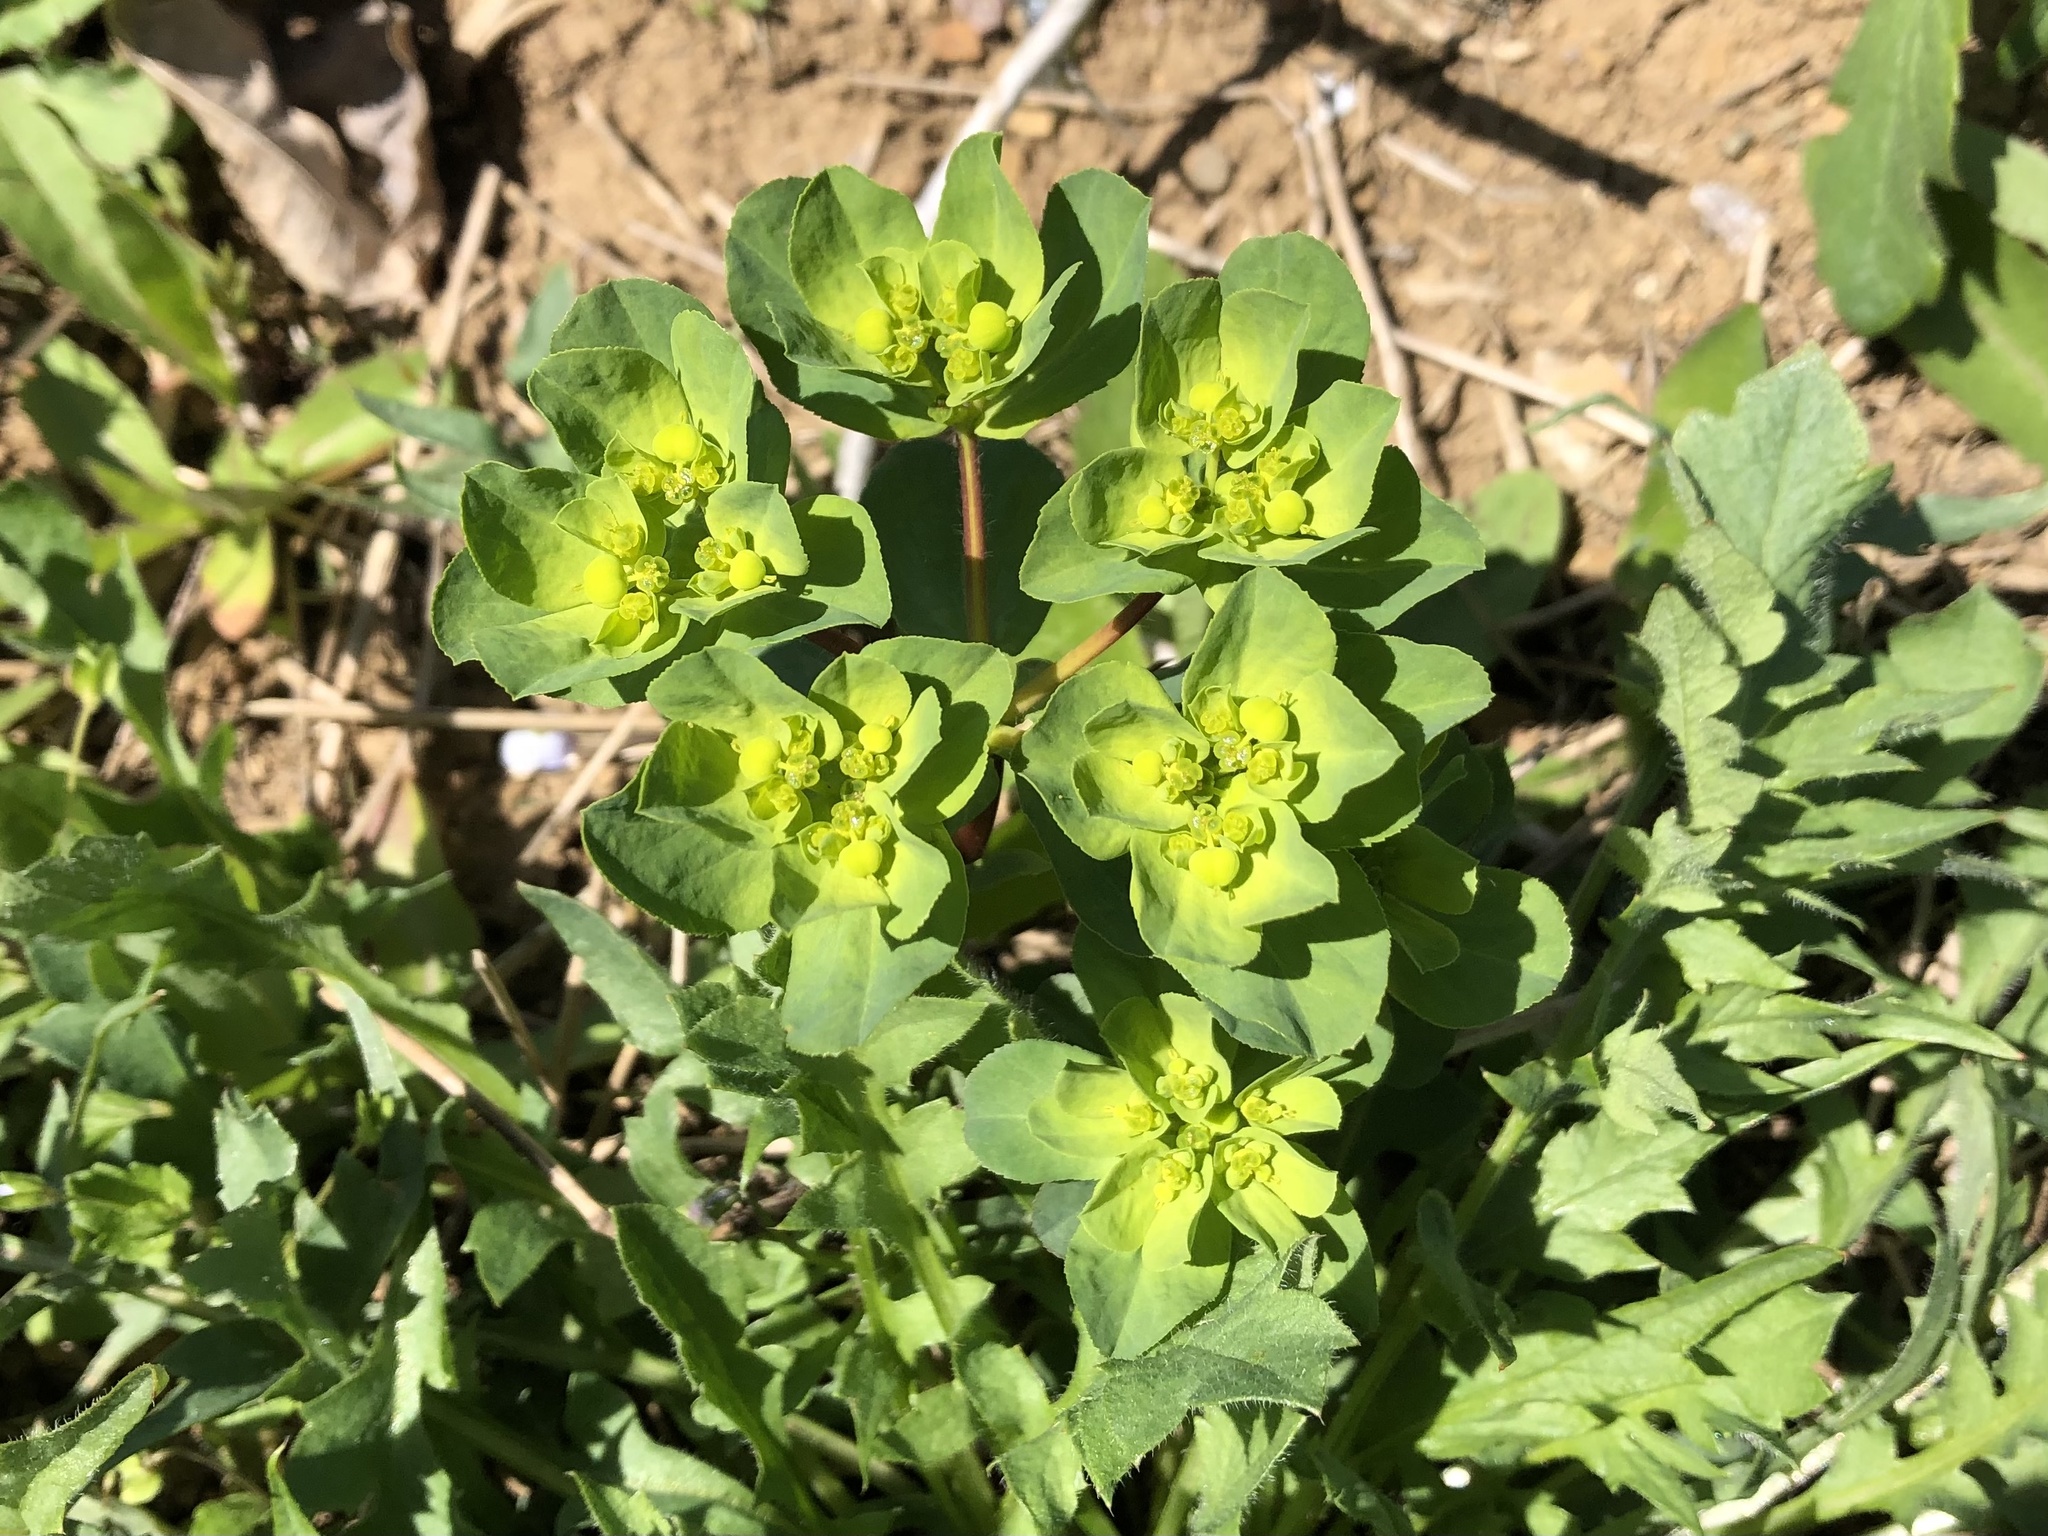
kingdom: Plantae
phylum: Tracheophyta
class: Magnoliopsida
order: Malpighiales
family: Euphorbiaceae
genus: Euphorbia
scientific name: Euphorbia helioscopia
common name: Sun spurge
